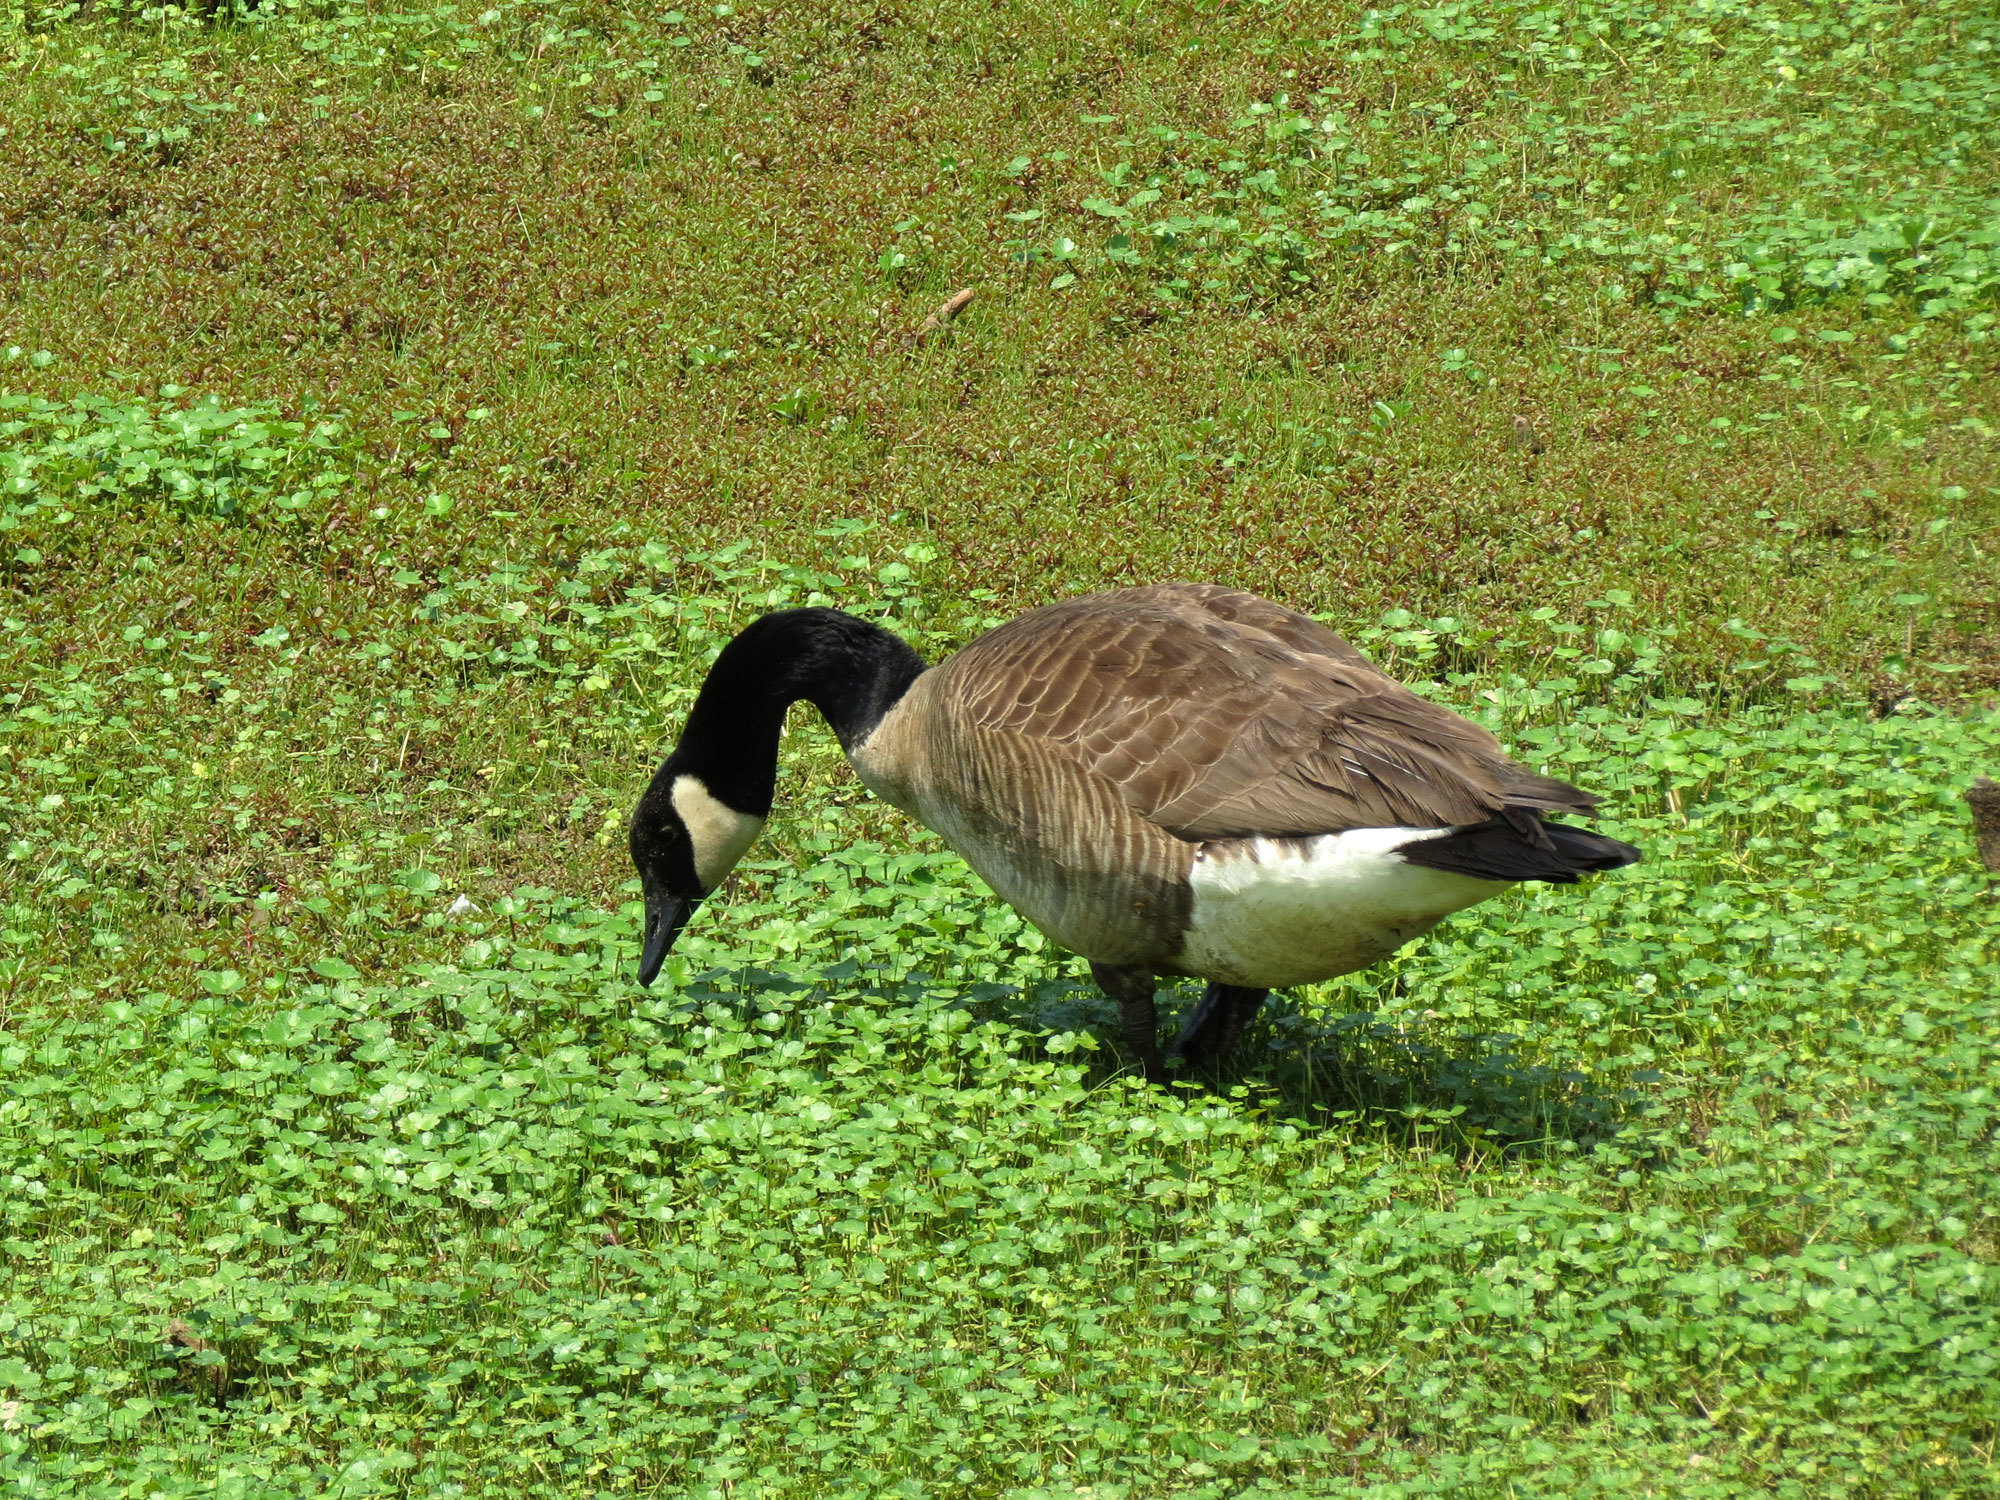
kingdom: Animalia
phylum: Chordata
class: Aves
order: Anseriformes
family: Anatidae
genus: Branta
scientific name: Branta canadensis
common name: Canada goose
